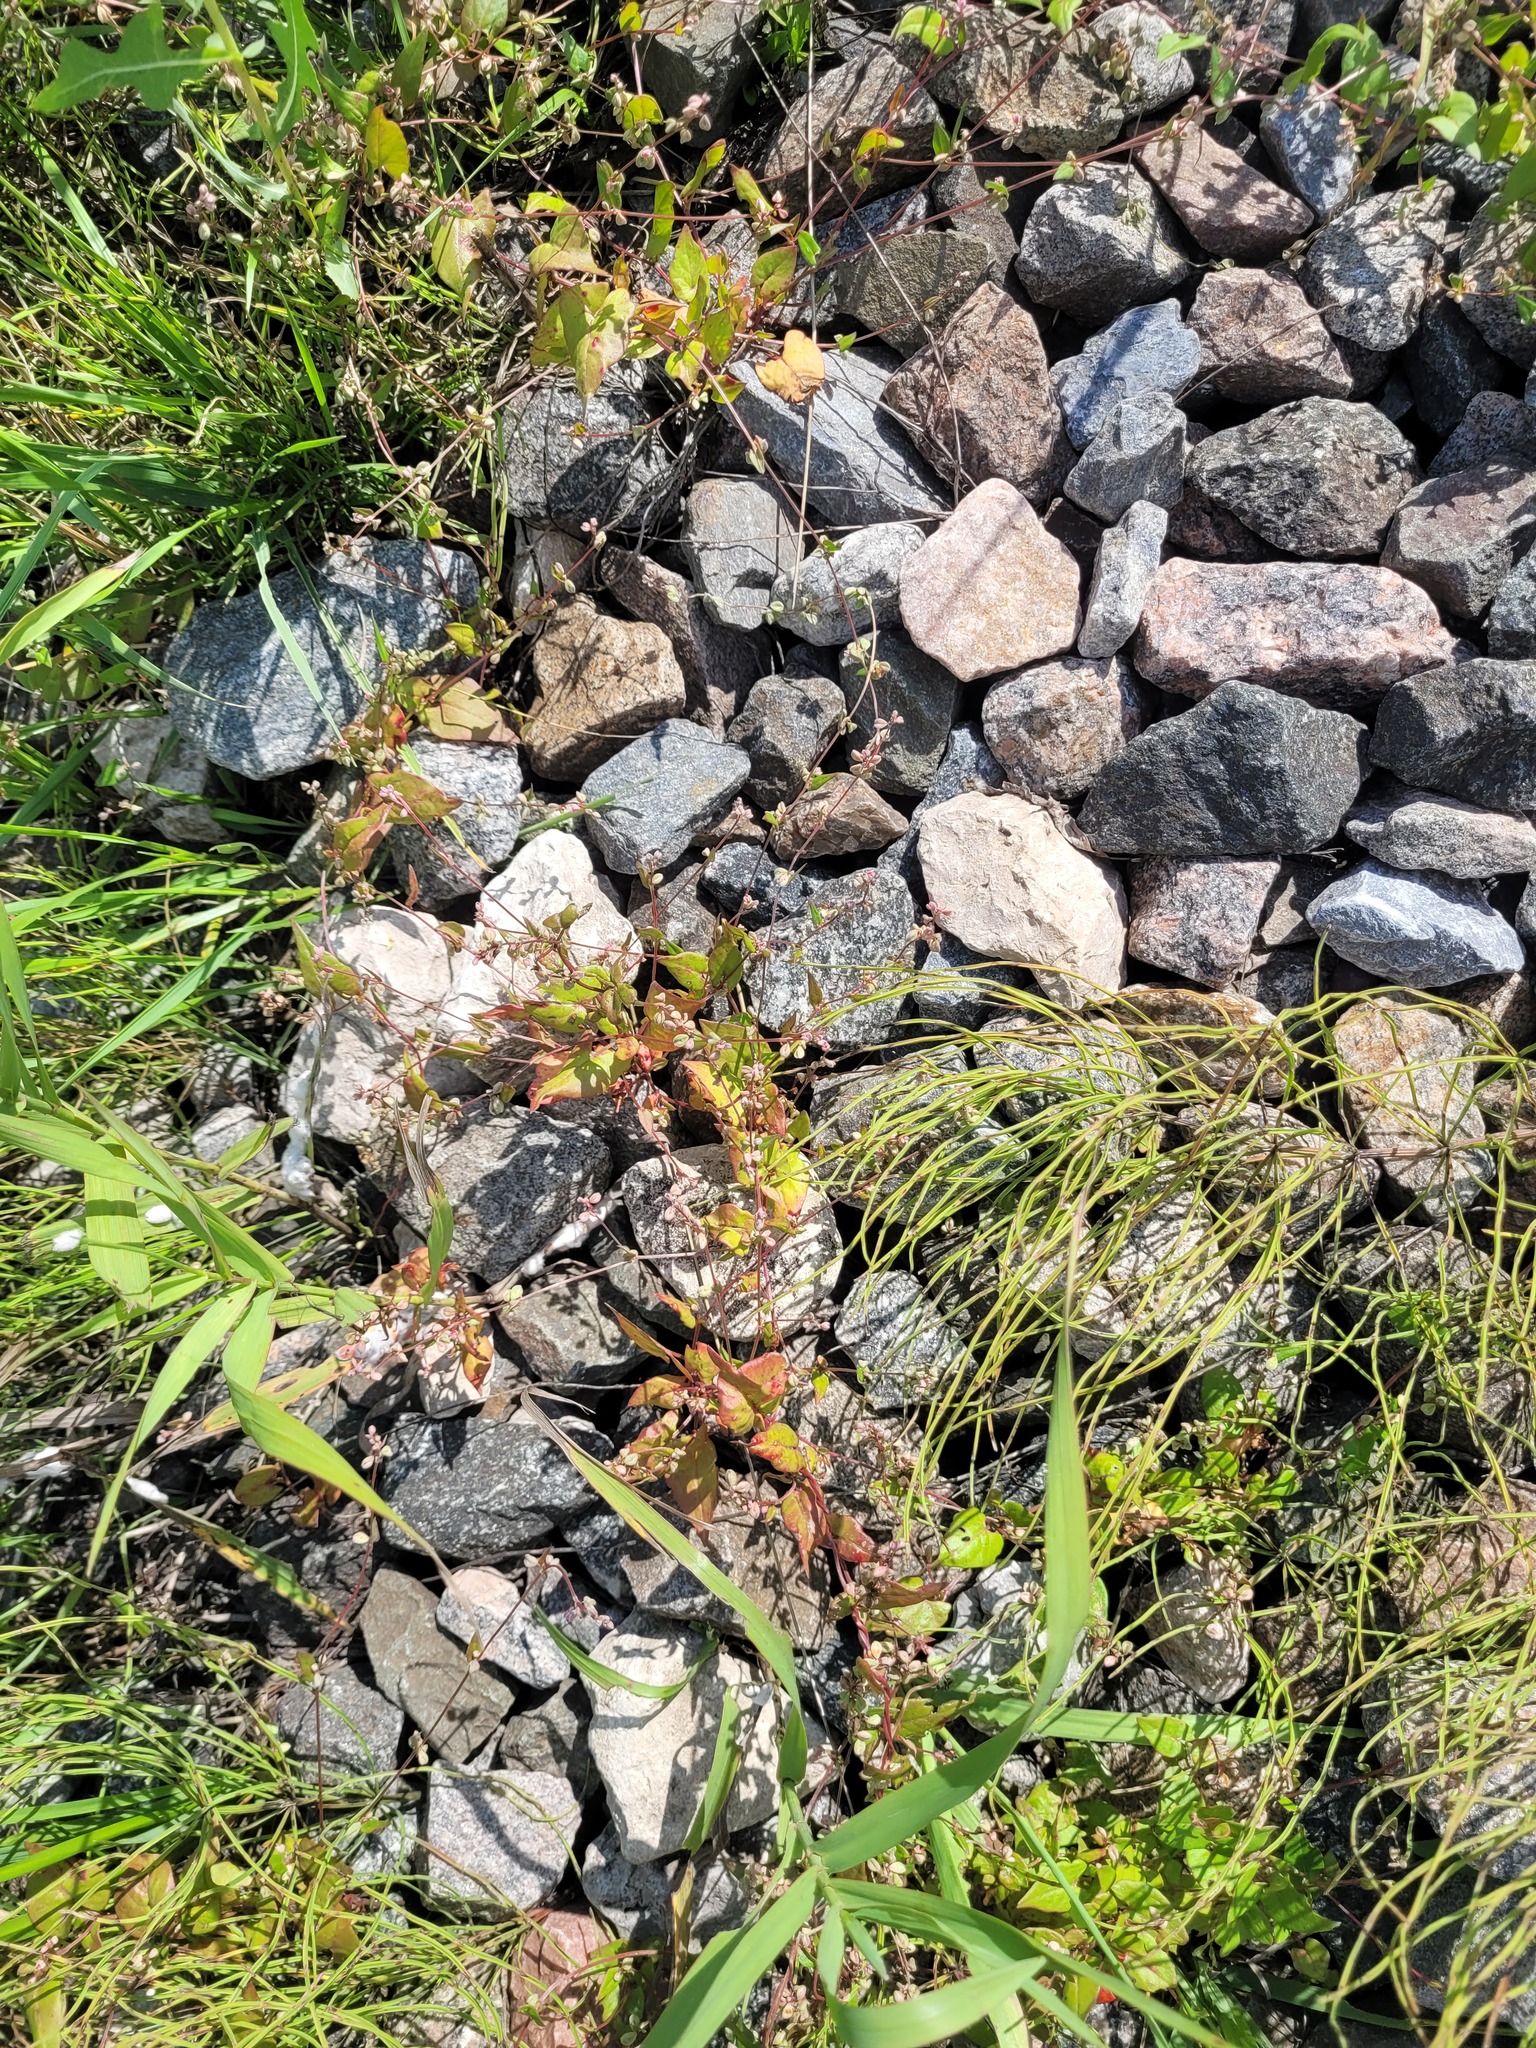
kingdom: Plantae
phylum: Tracheophyta
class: Magnoliopsida
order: Caryophyllales
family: Polygonaceae
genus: Fallopia
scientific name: Fallopia convolvulus
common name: Black bindweed
